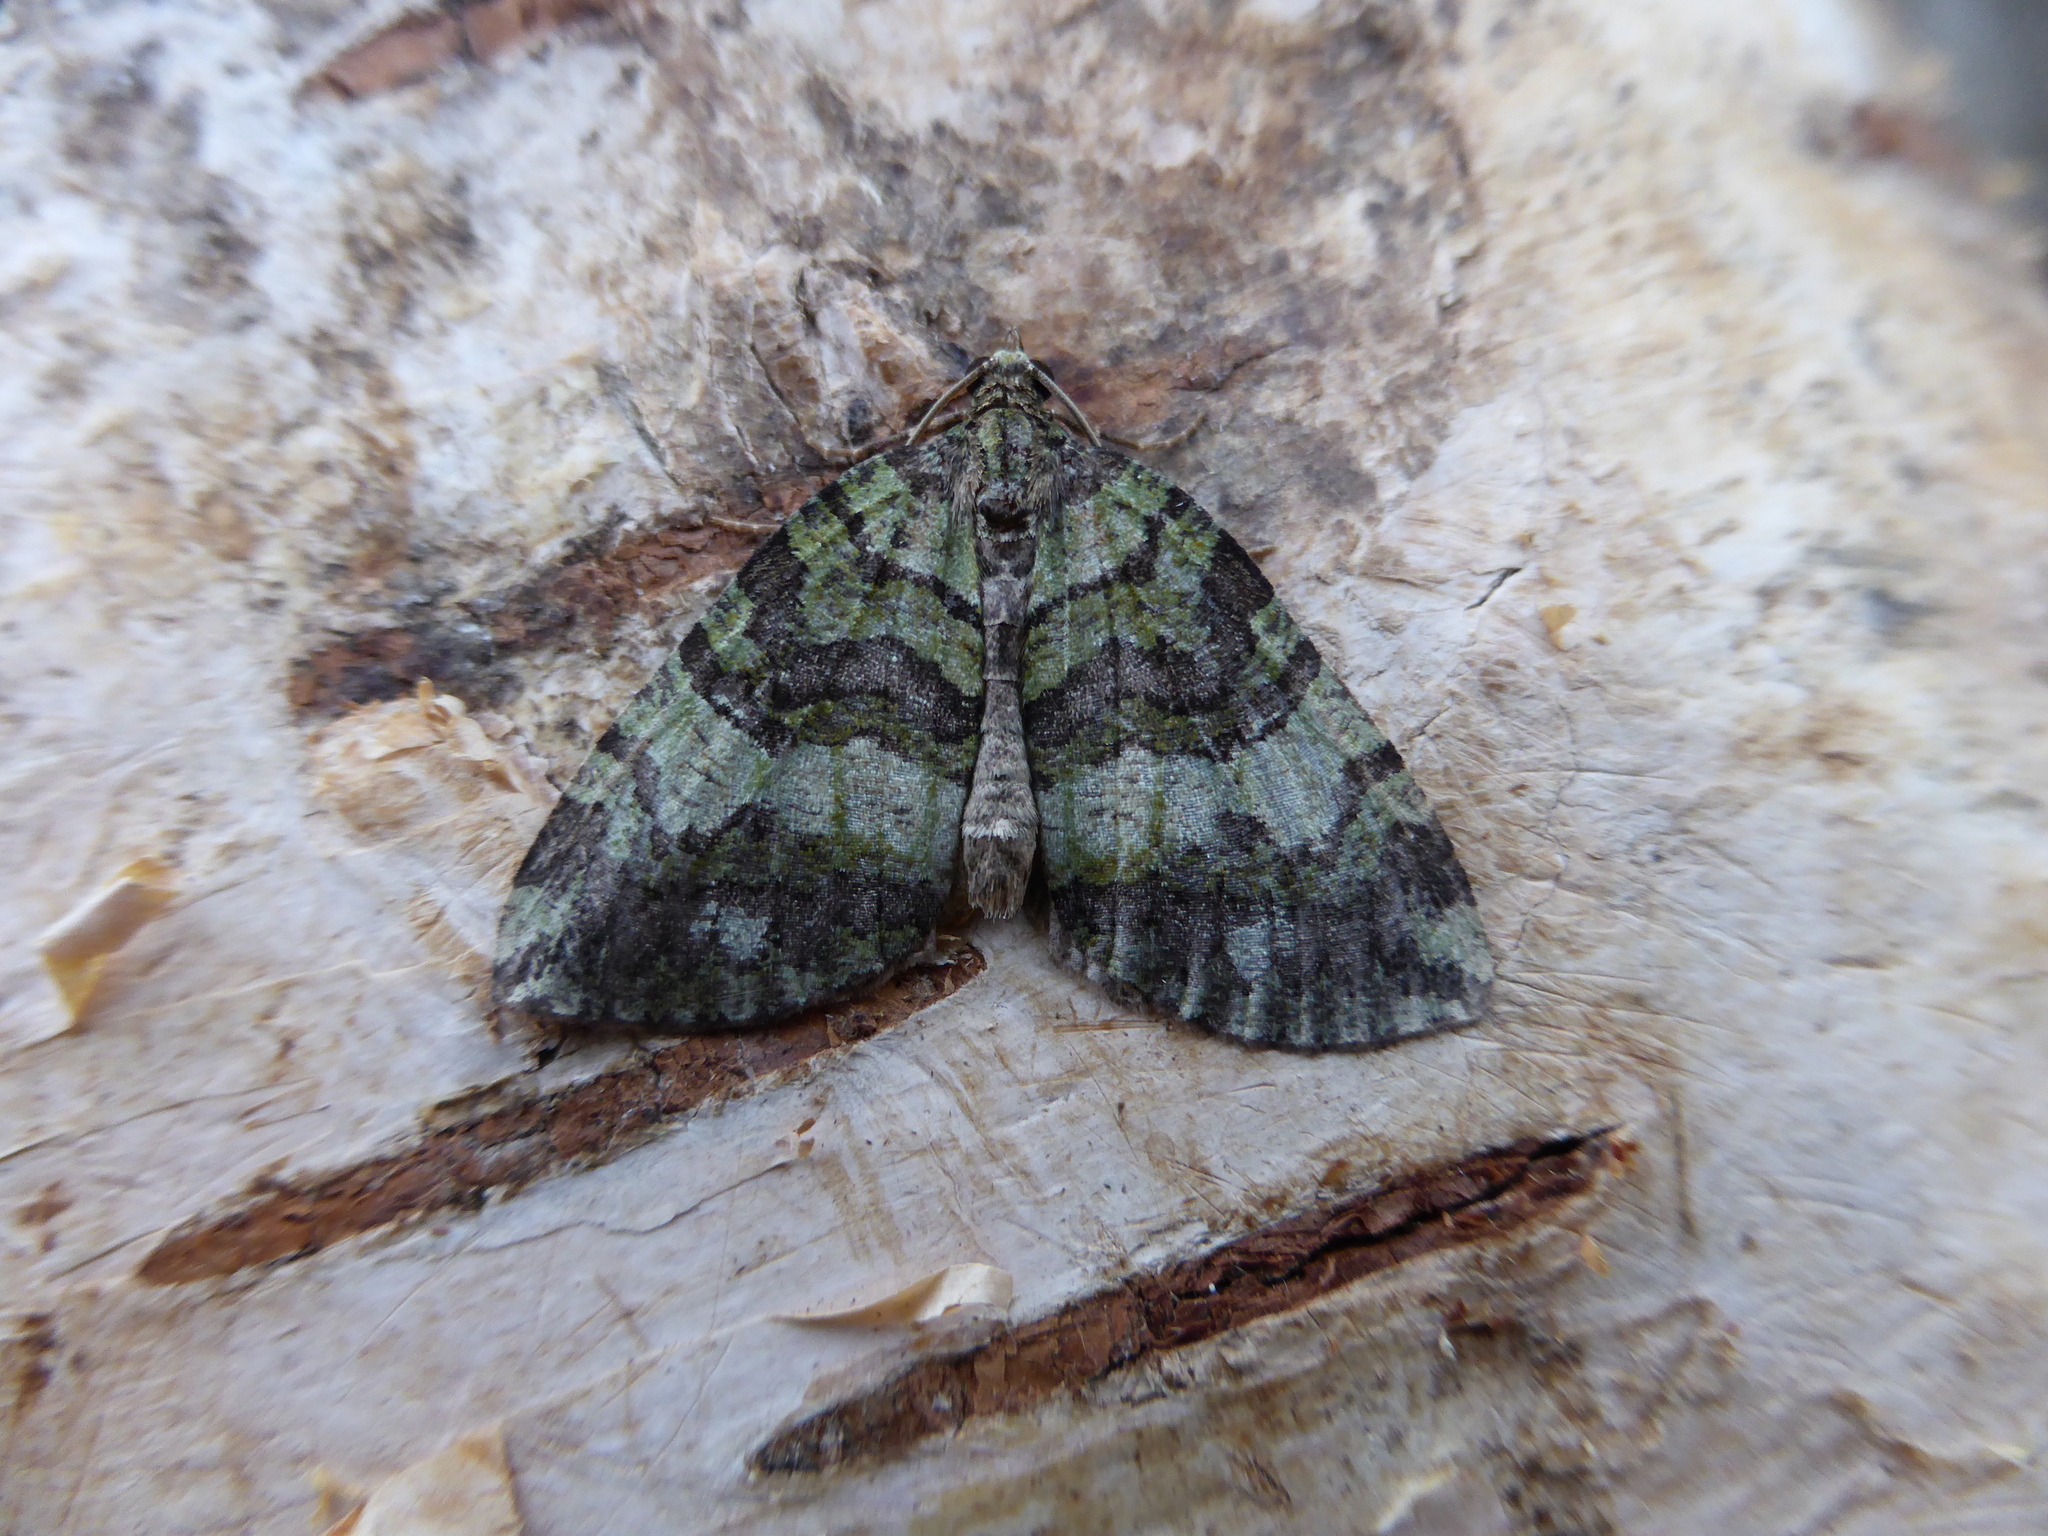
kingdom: Animalia
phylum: Arthropoda
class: Insecta
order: Lepidoptera
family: Geometridae
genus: Hydriomena
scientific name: Hydriomena furcata
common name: July highflyer
